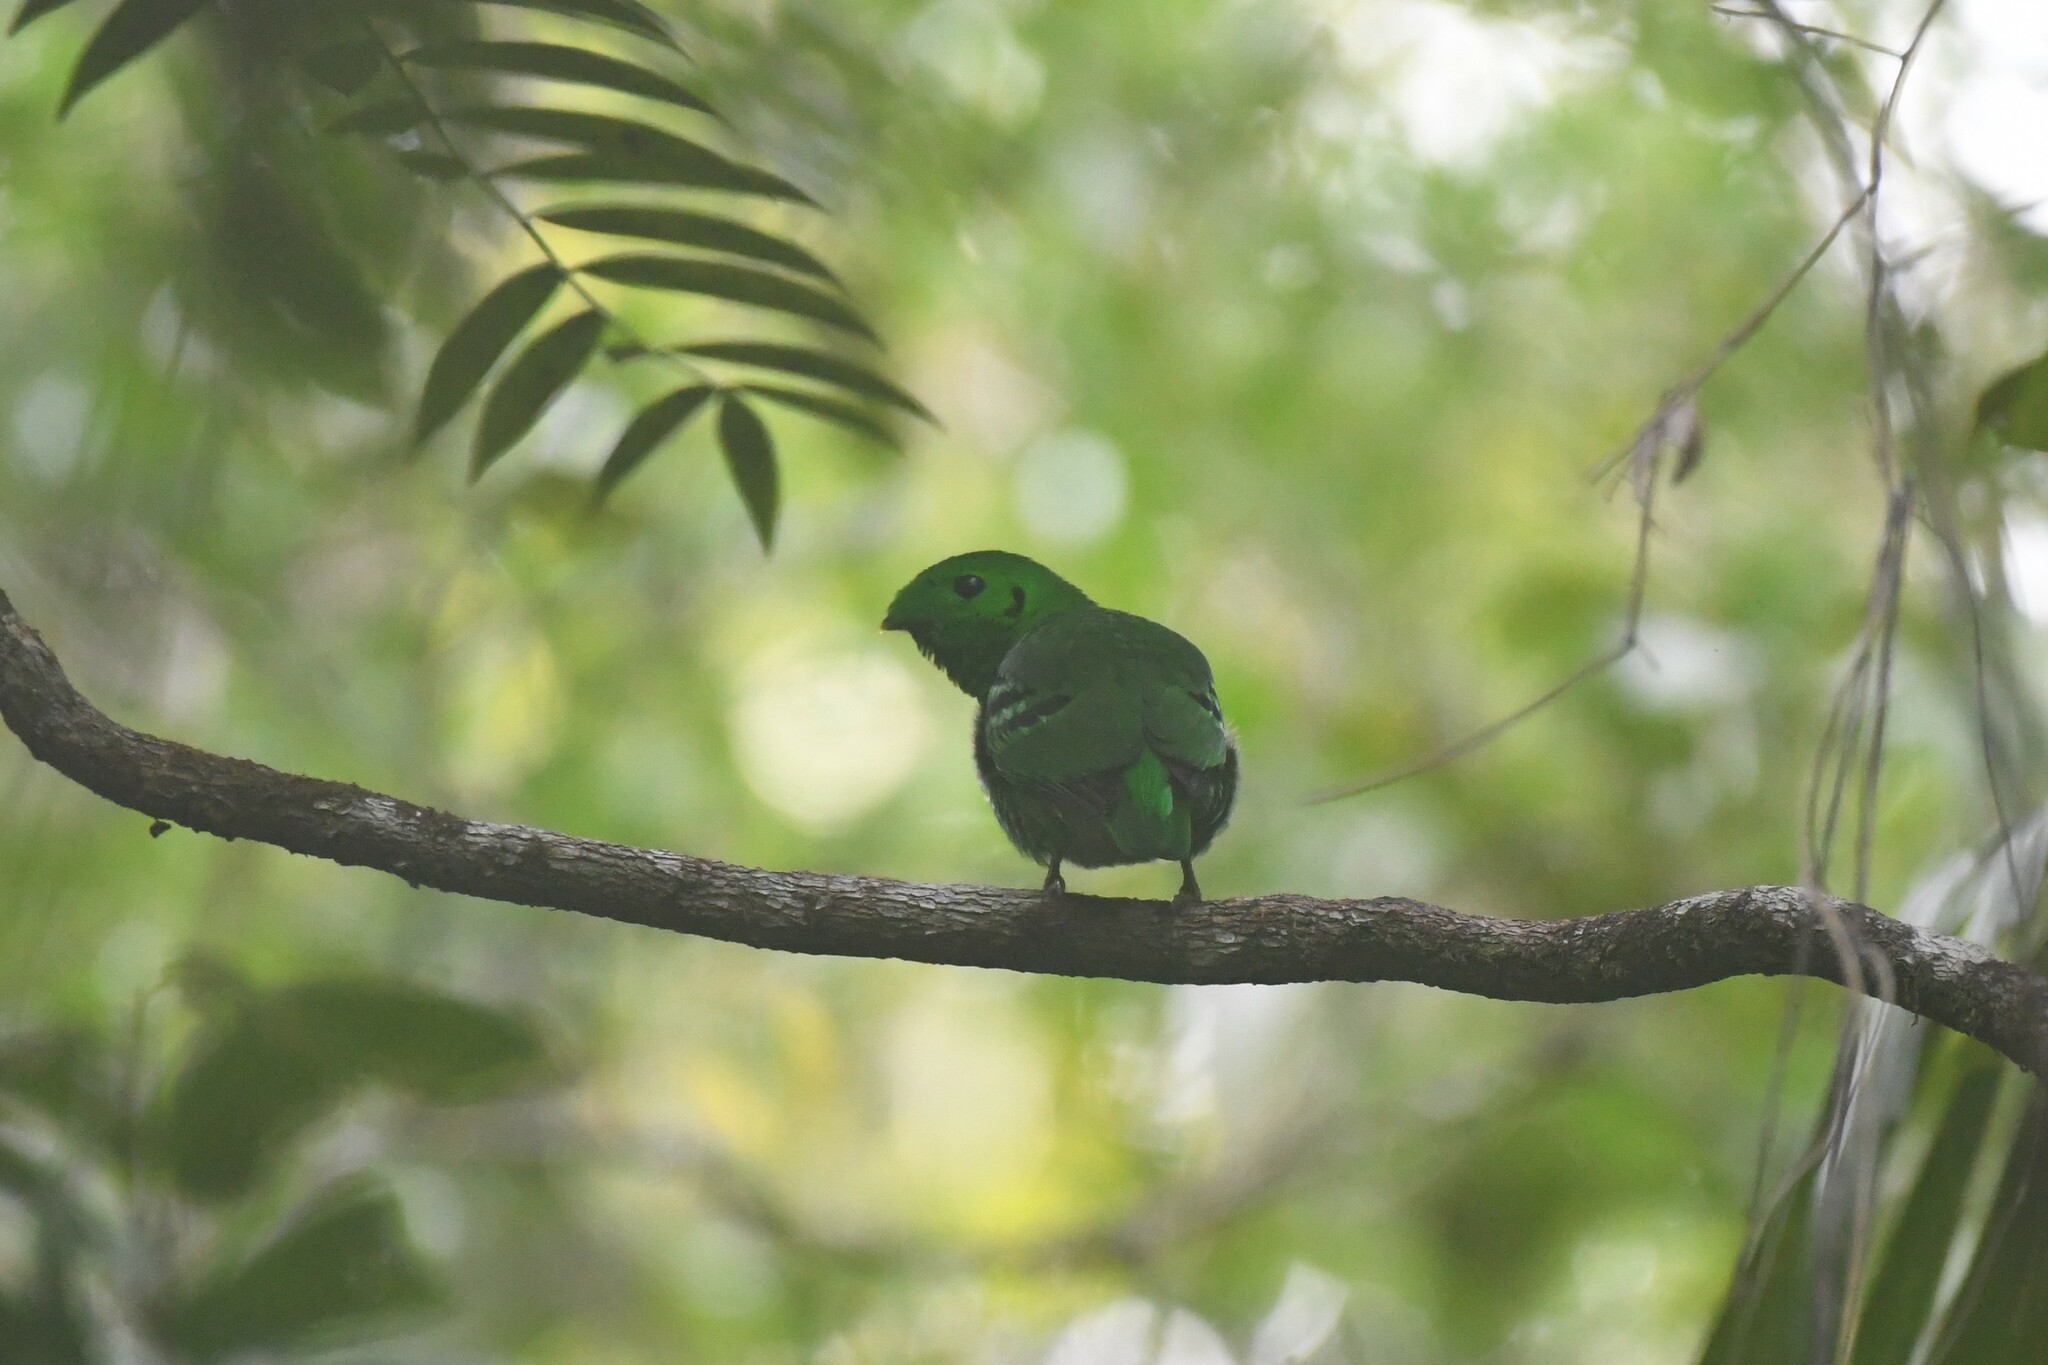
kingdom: Animalia
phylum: Chordata
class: Aves
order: Passeriformes
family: Eurylaimidae
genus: Calyptomena
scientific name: Calyptomena viridis
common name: Green broadbill
